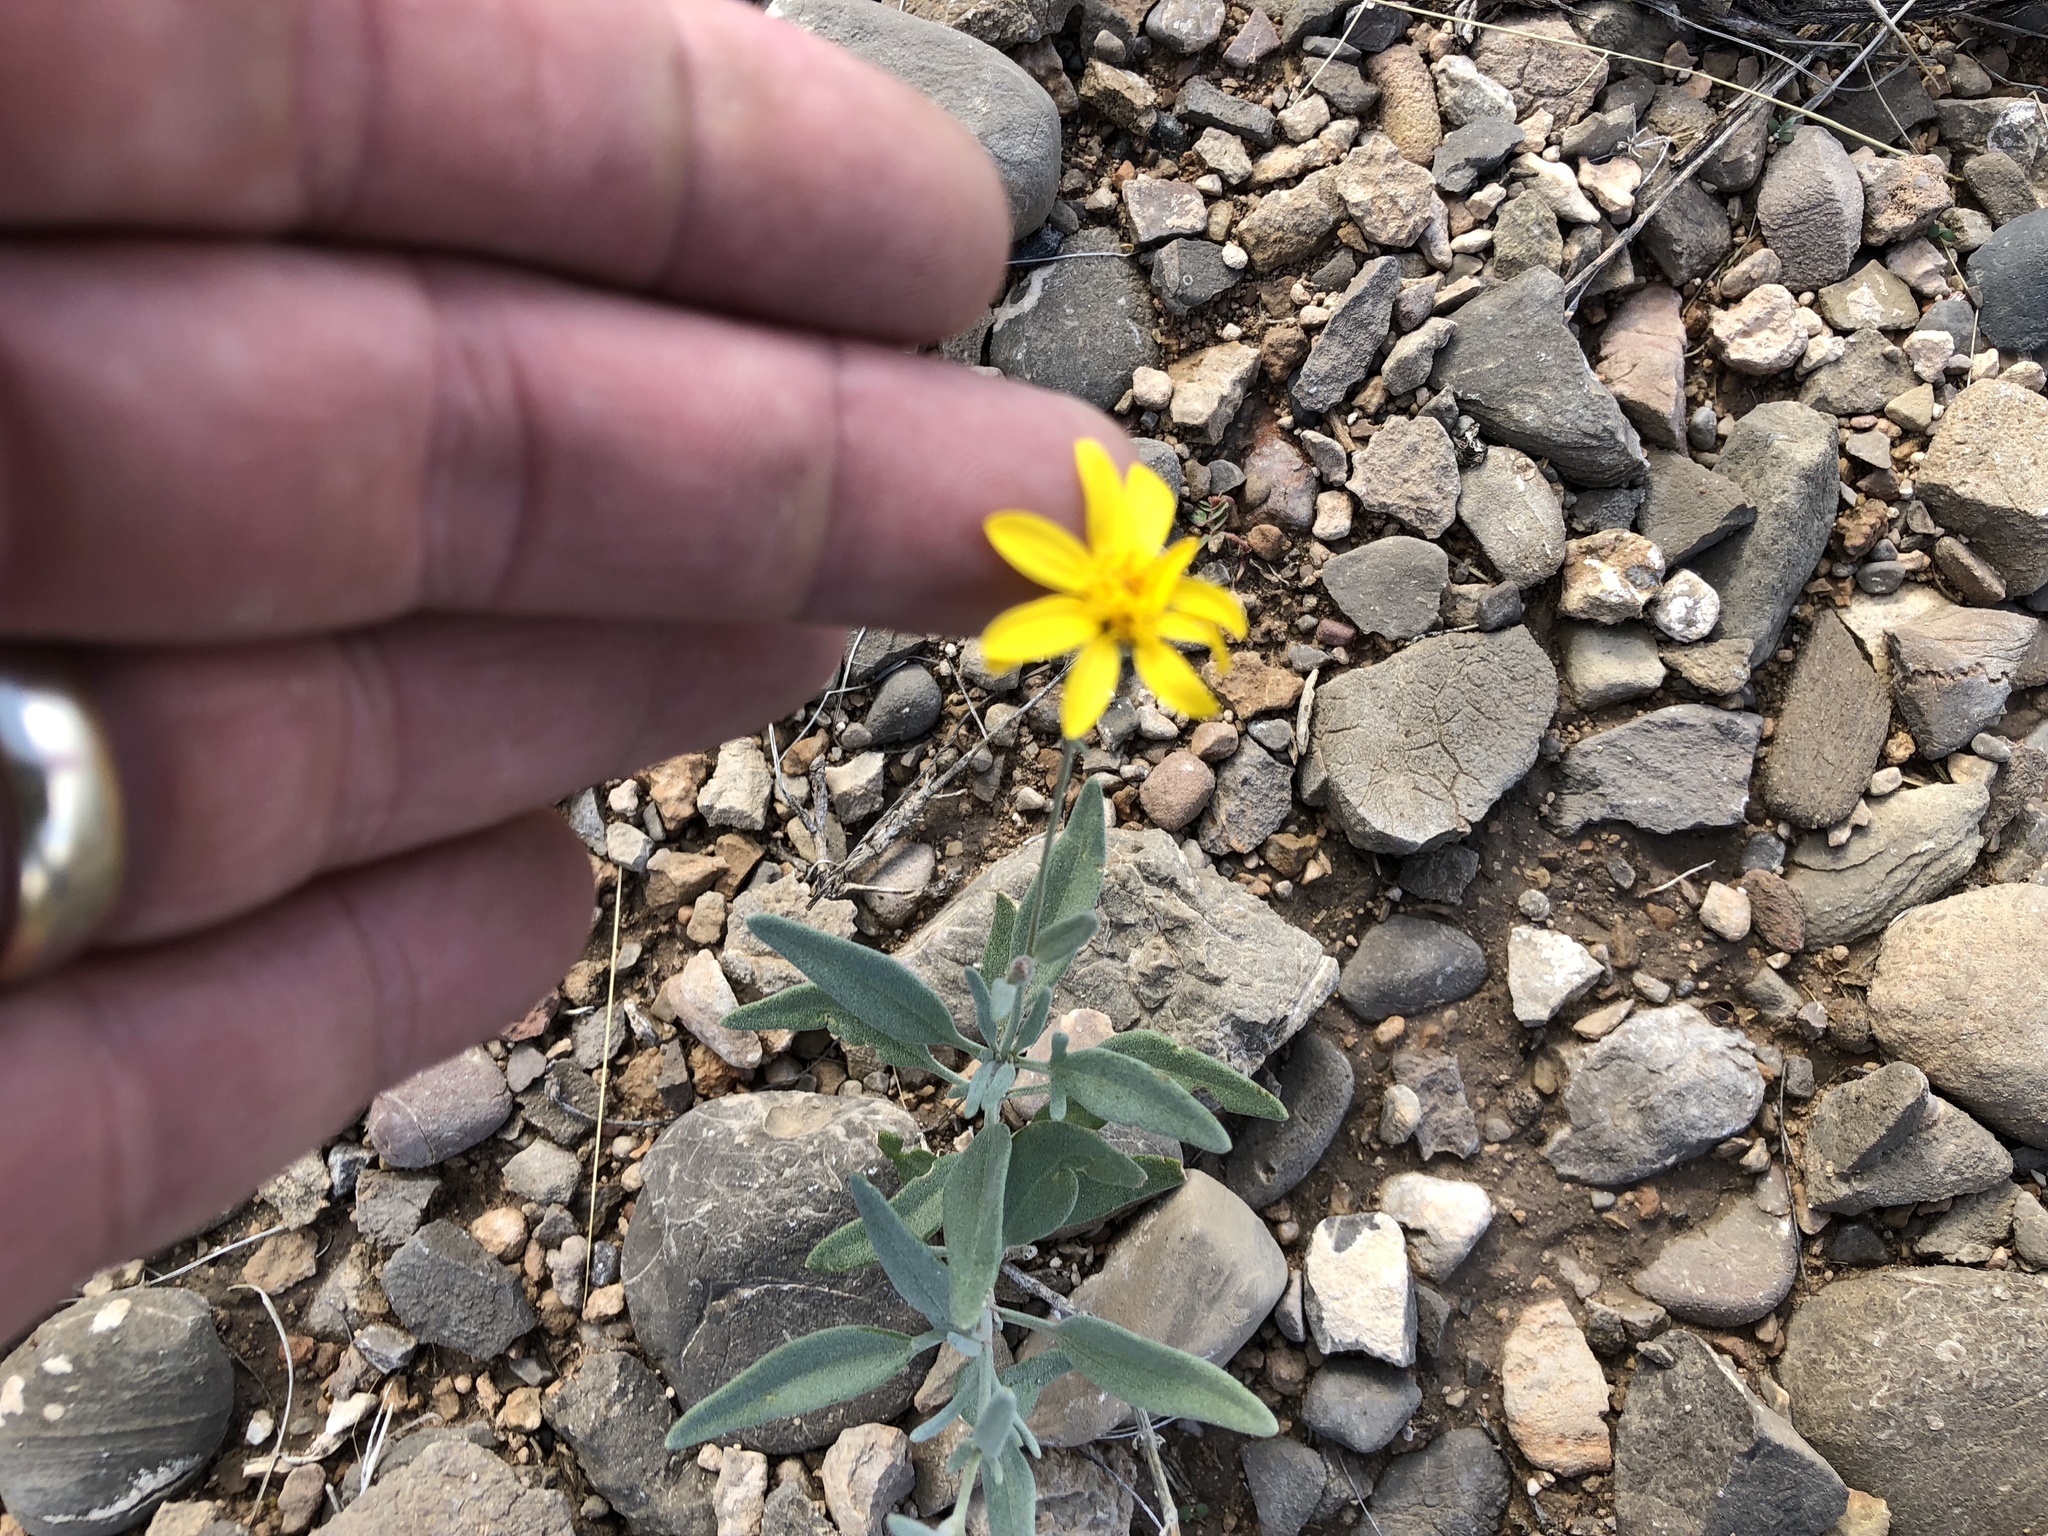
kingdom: Plantae
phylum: Tracheophyta
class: Magnoliopsida
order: Asterales
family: Asteraceae
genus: Picradeniopsis
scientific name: Picradeniopsis absinthifolia
